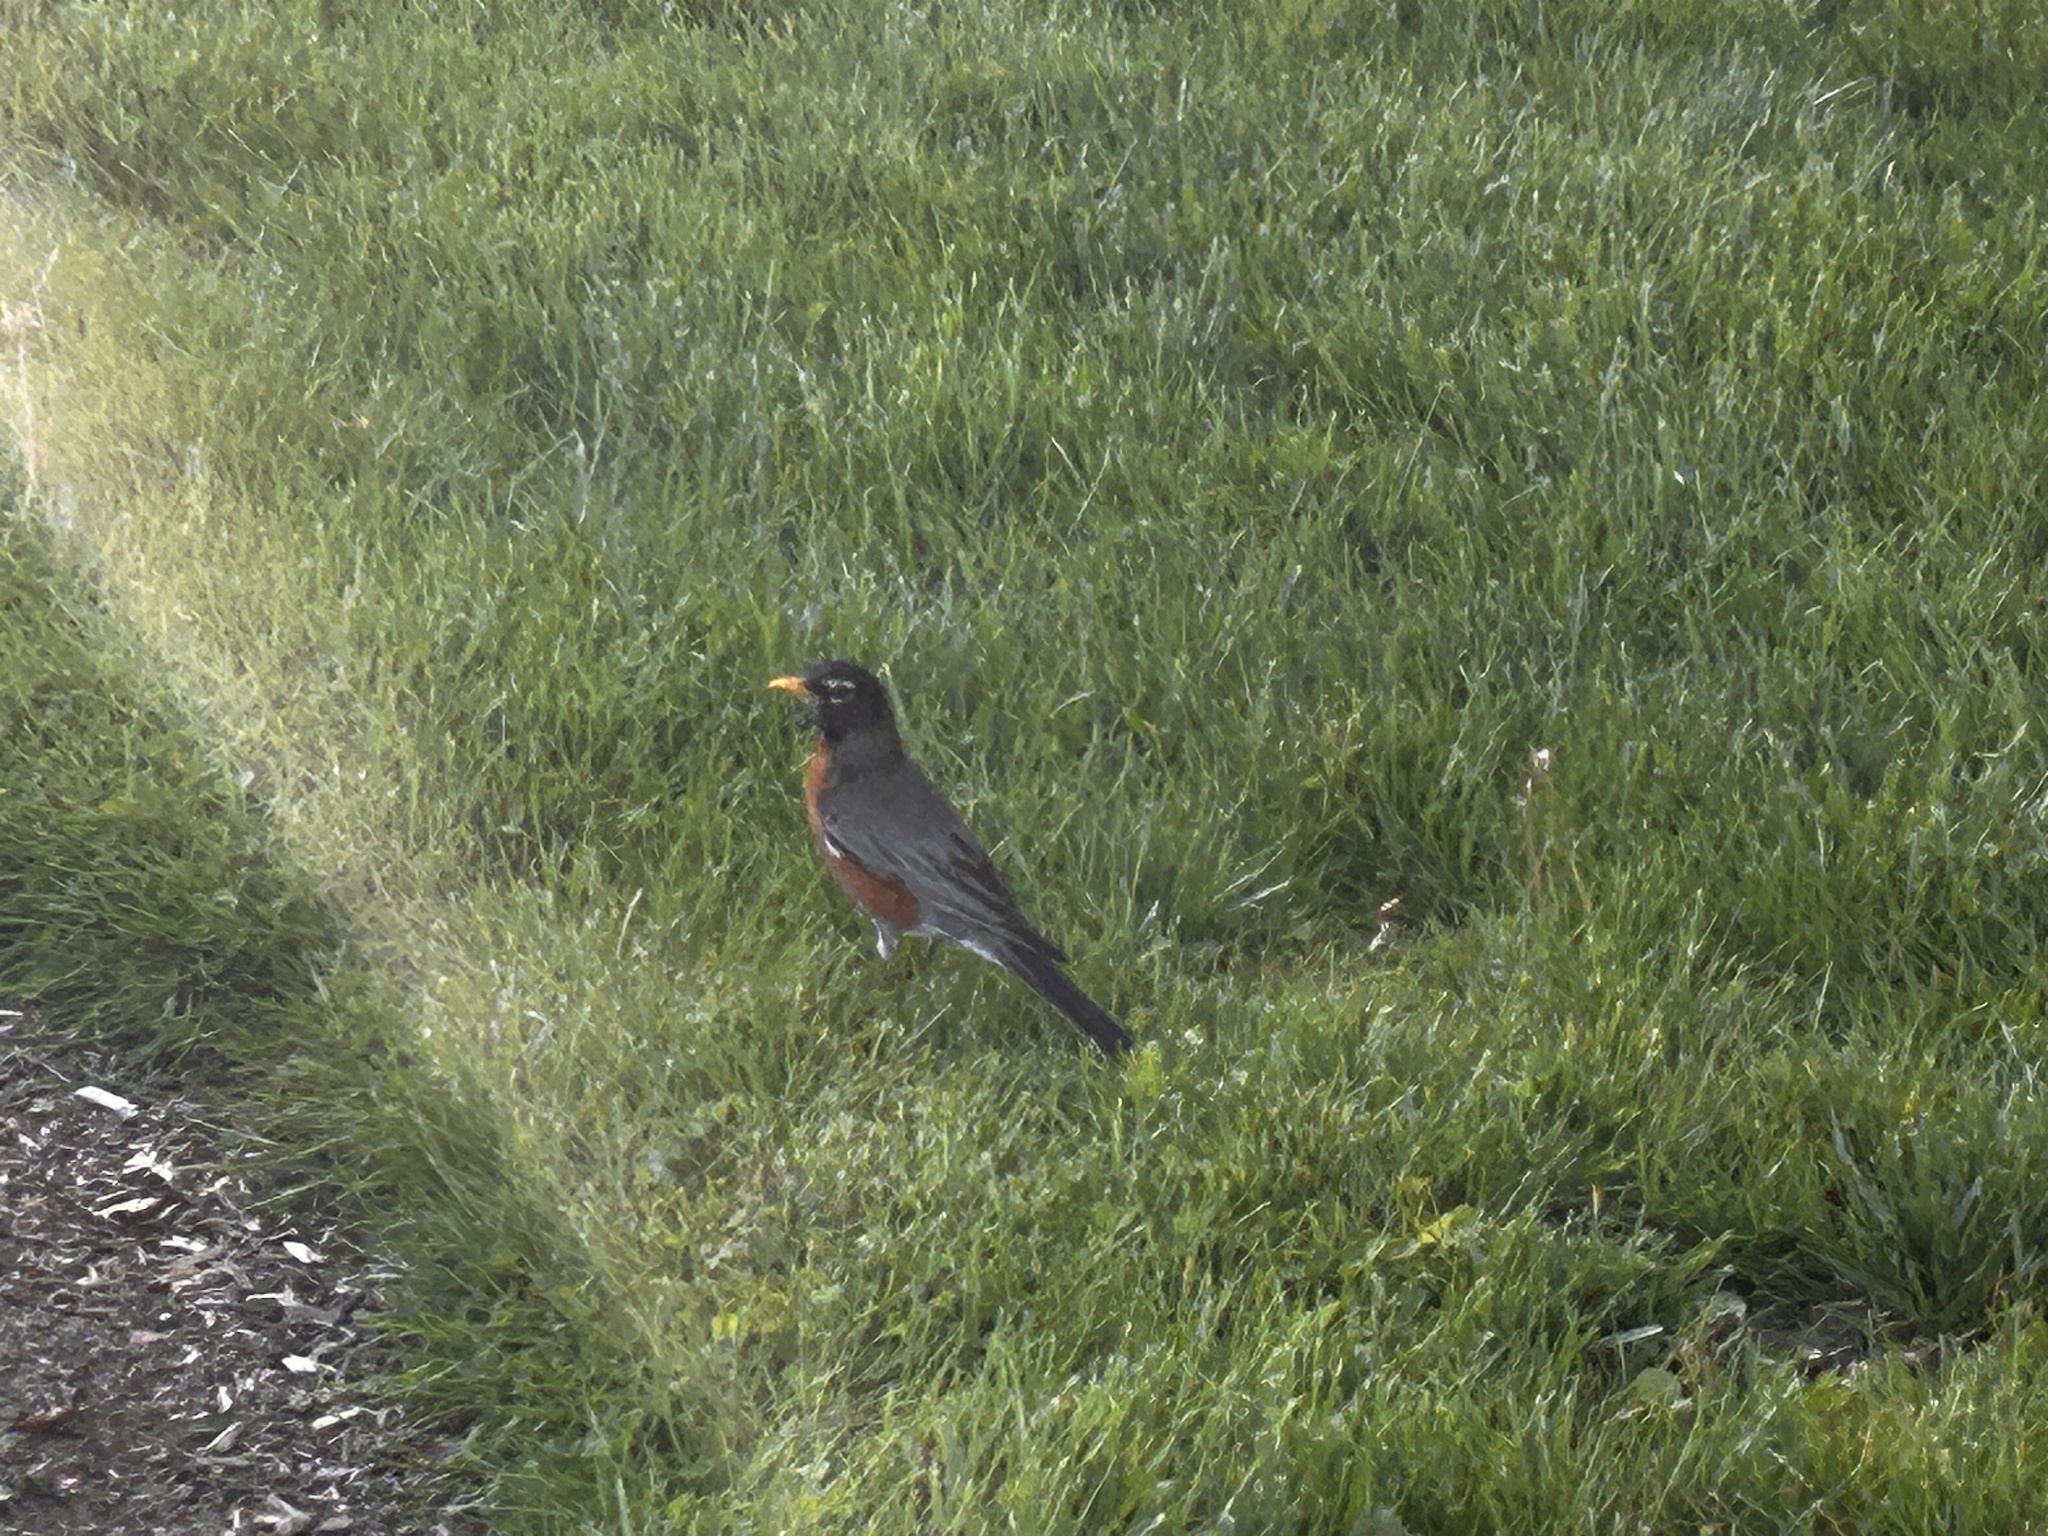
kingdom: Animalia
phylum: Chordata
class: Aves
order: Passeriformes
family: Turdidae
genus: Turdus
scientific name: Turdus migratorius
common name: American robin
